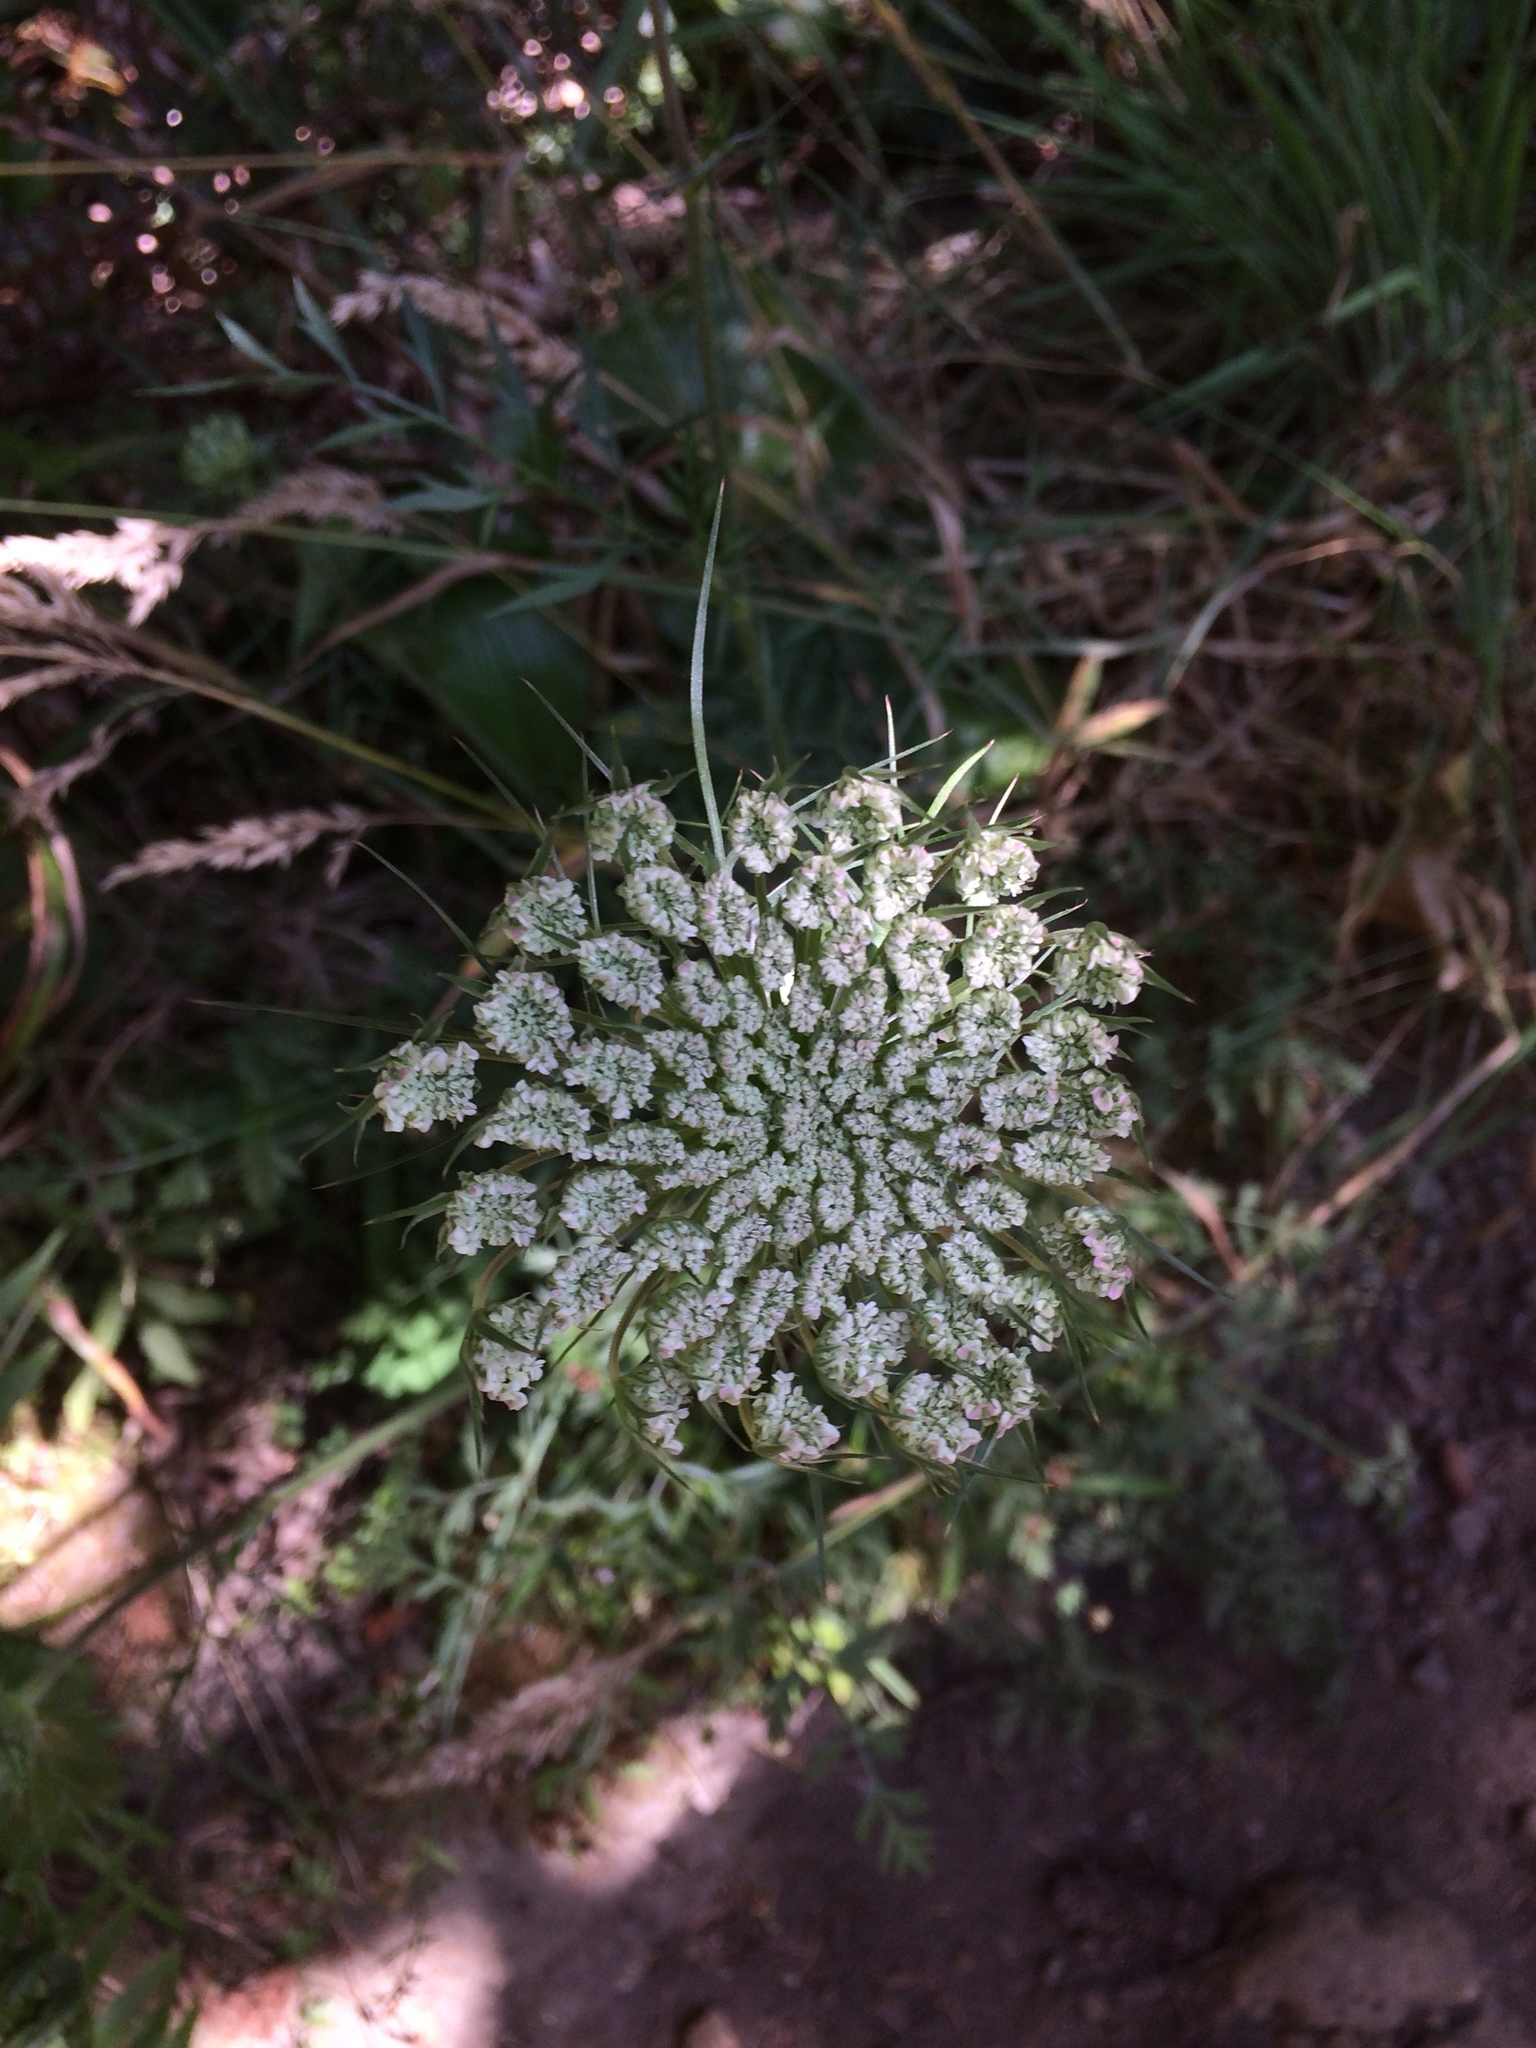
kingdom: Plantae
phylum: Tracheophyta
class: Magnoliopsida
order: Apiales
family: Apiaceae
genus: Daucus
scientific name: Daucus carota
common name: Wild carrot
